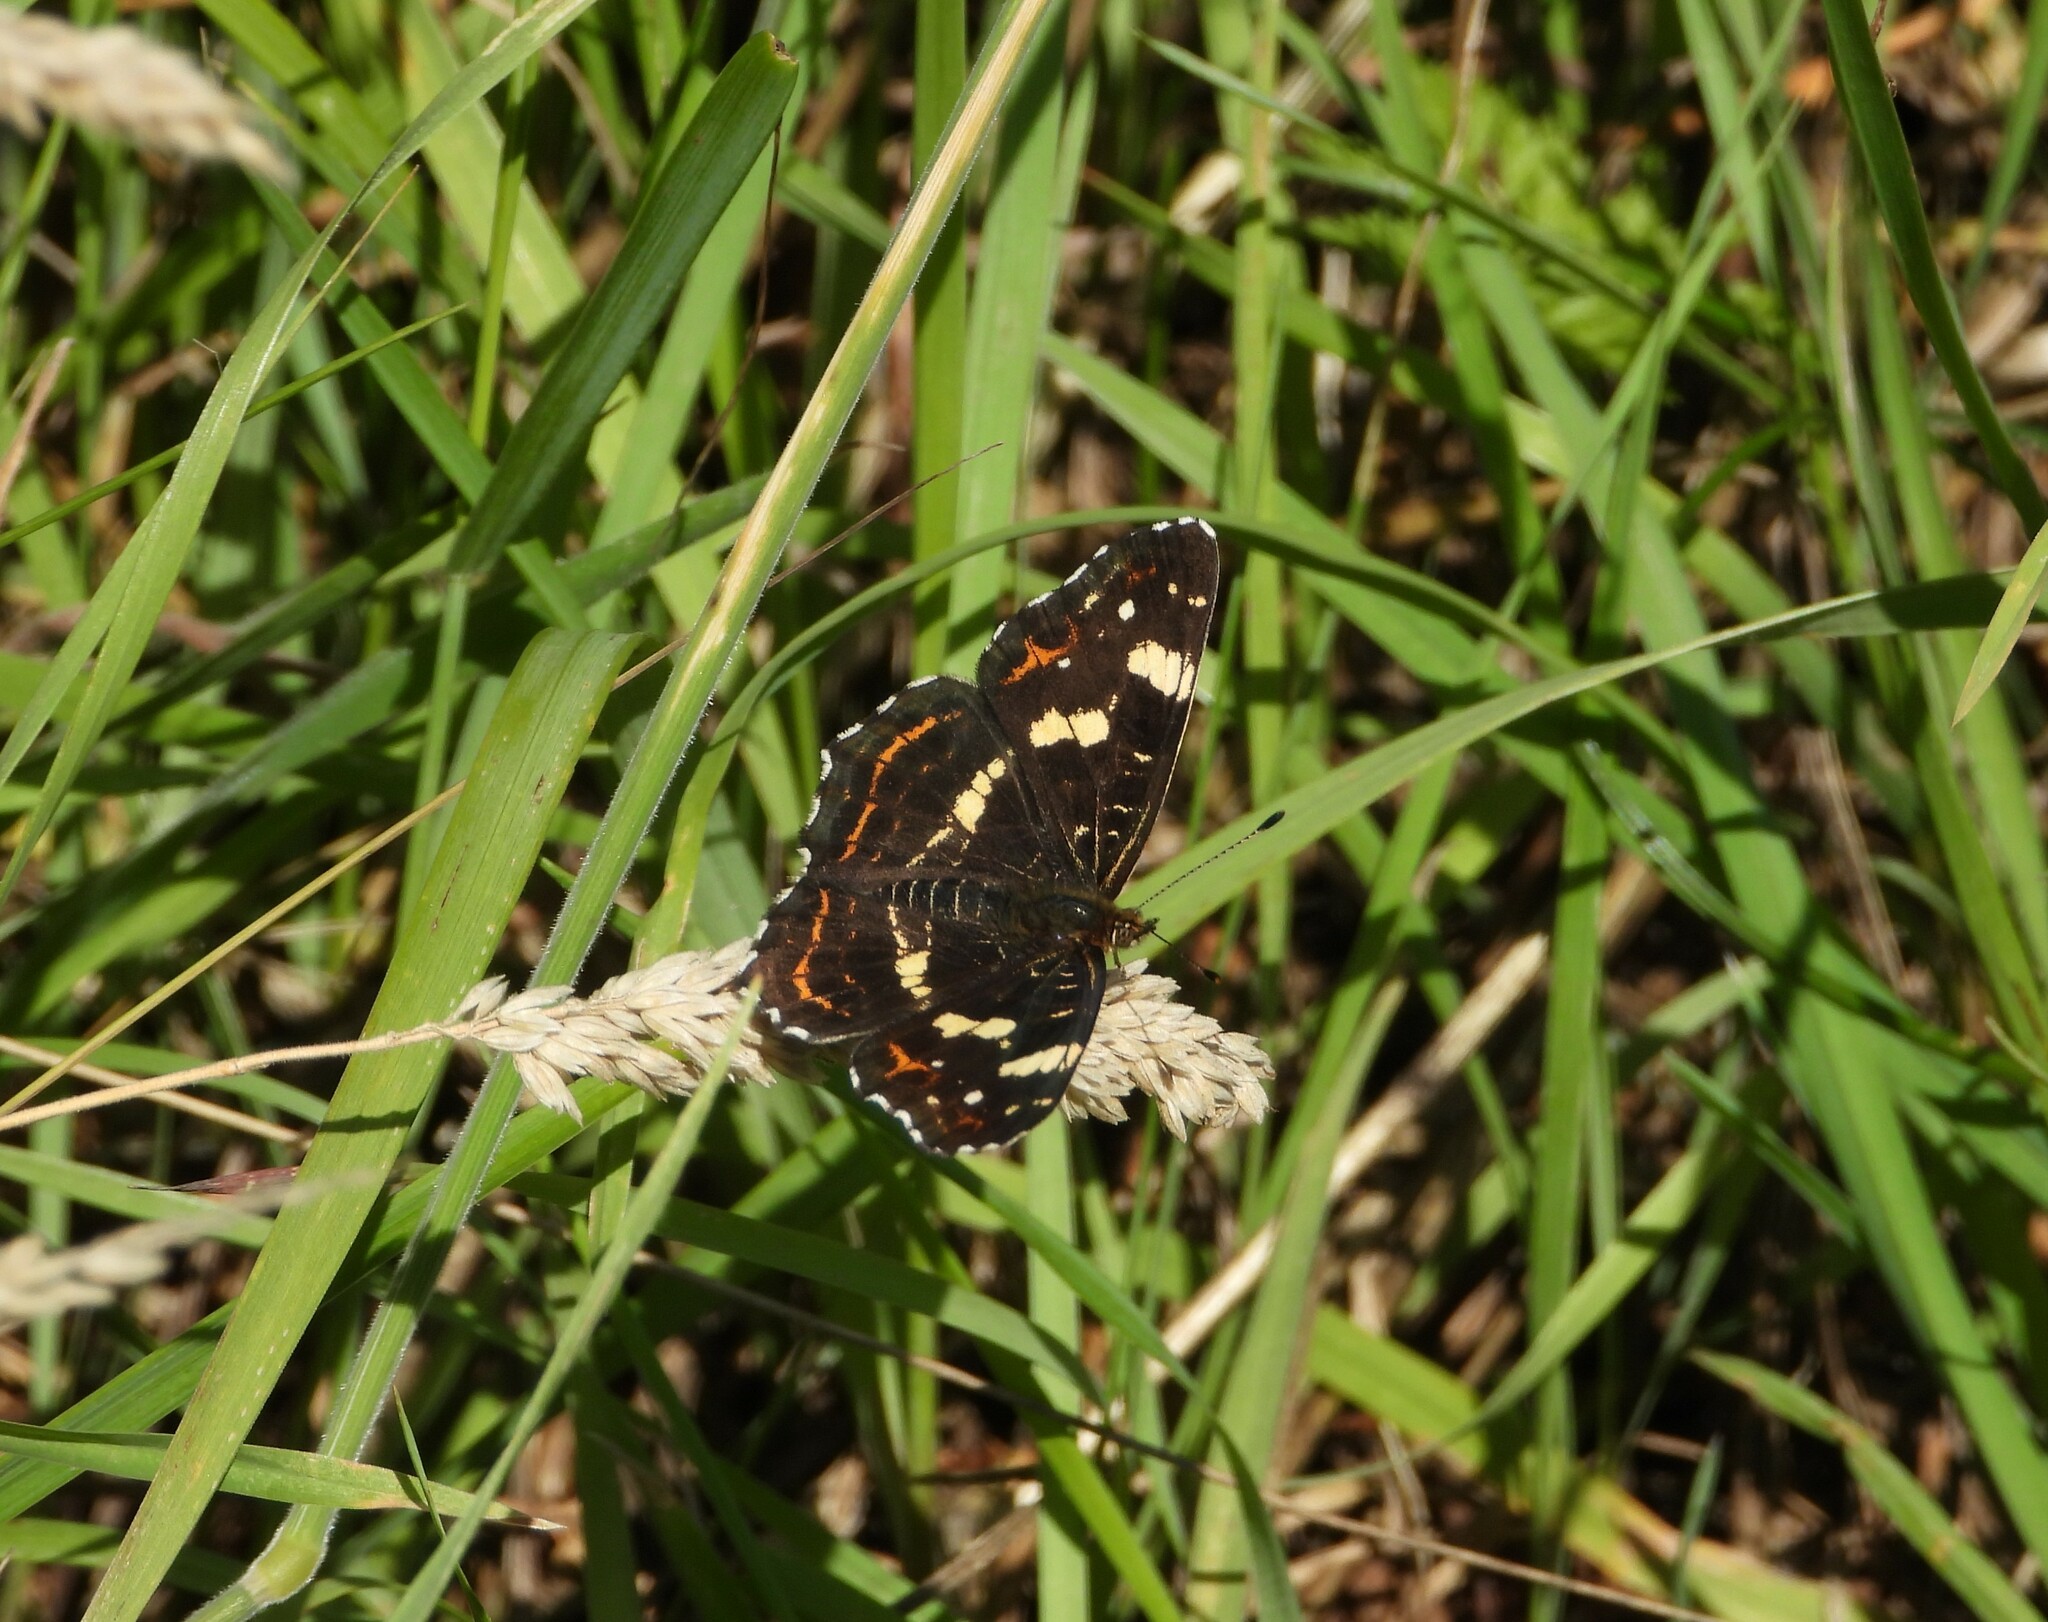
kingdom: Animalia
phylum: Arthropoda
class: Insecta
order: Lepidoptera
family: Nymphalidae
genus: Araschnia
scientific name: Araschnia levana
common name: Map butterfly
